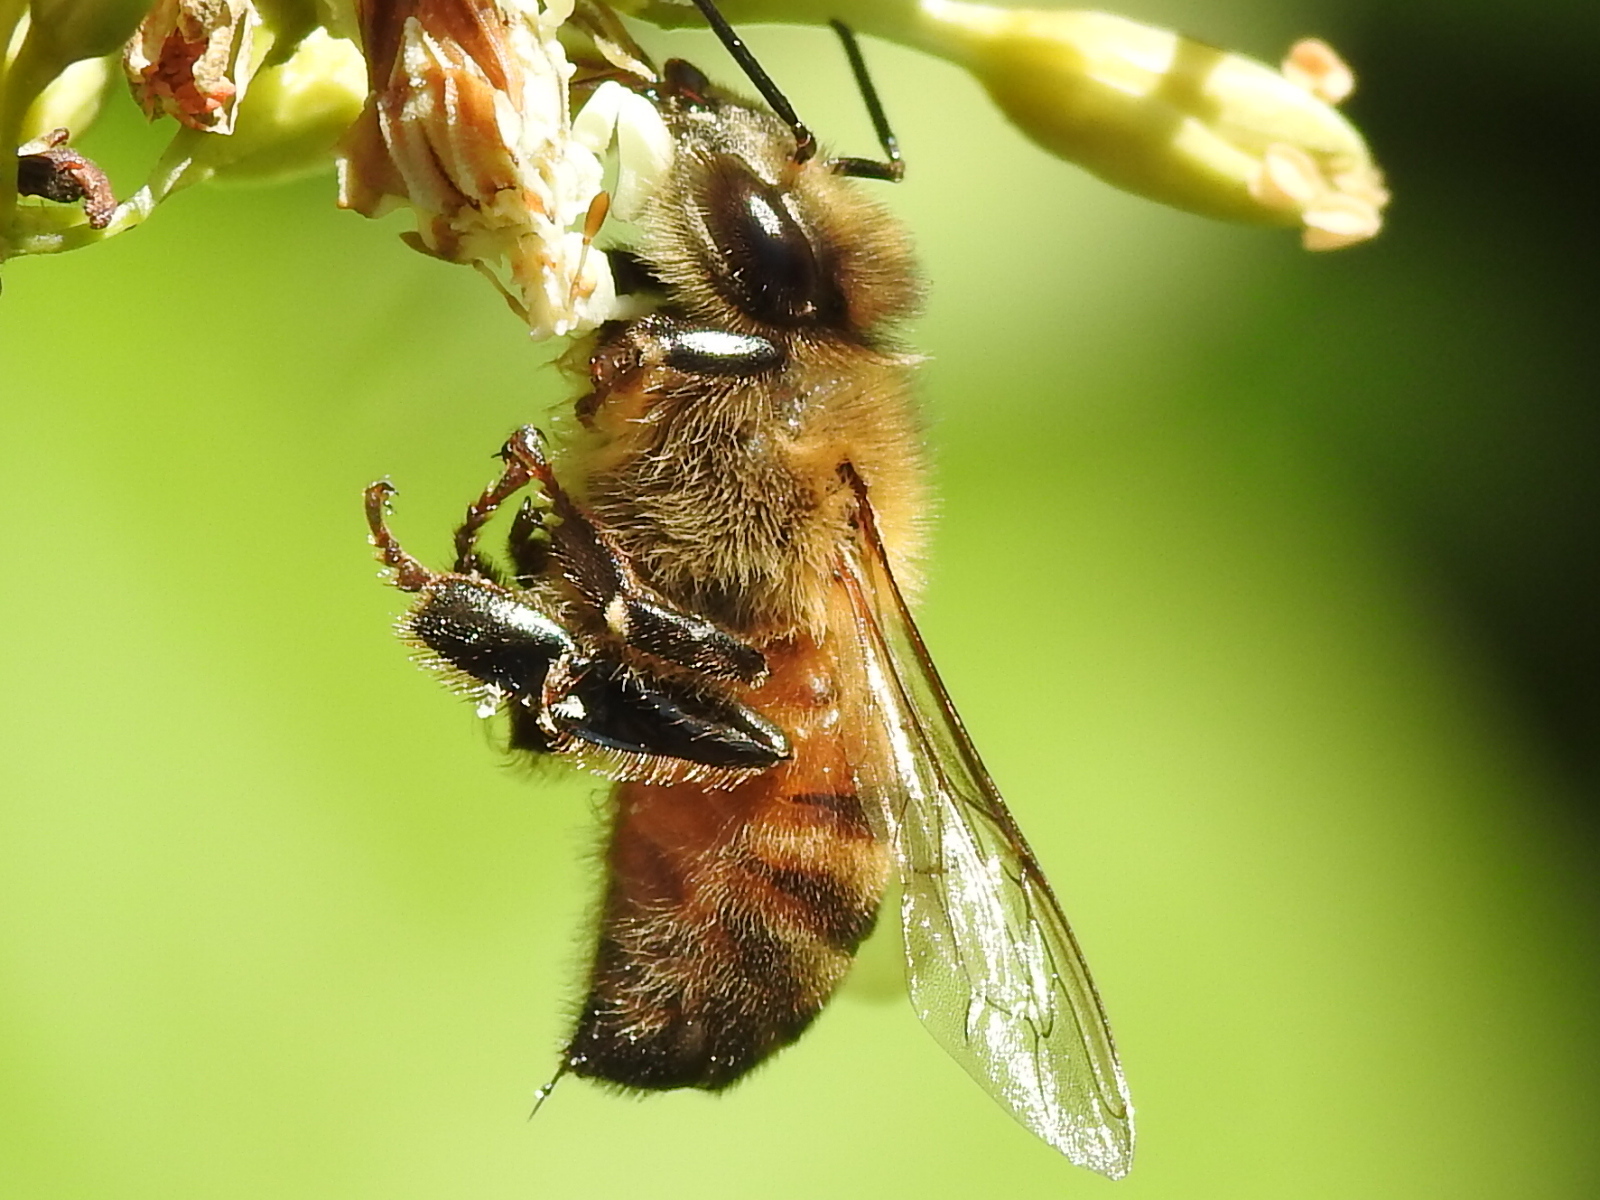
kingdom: Animalia
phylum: Arthropoda
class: Insecta
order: Hymenoptera
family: Apidae
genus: Apis
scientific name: Apis mellifera
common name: Honey bee
